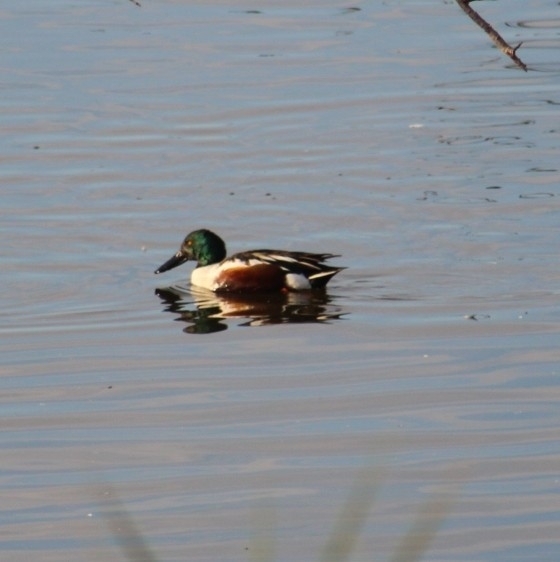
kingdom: Animalia
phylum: Chordata
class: Aves
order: Anseriformes
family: Anatidae
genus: Spatula
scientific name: Spatula clypeata
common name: Northern shoveler
